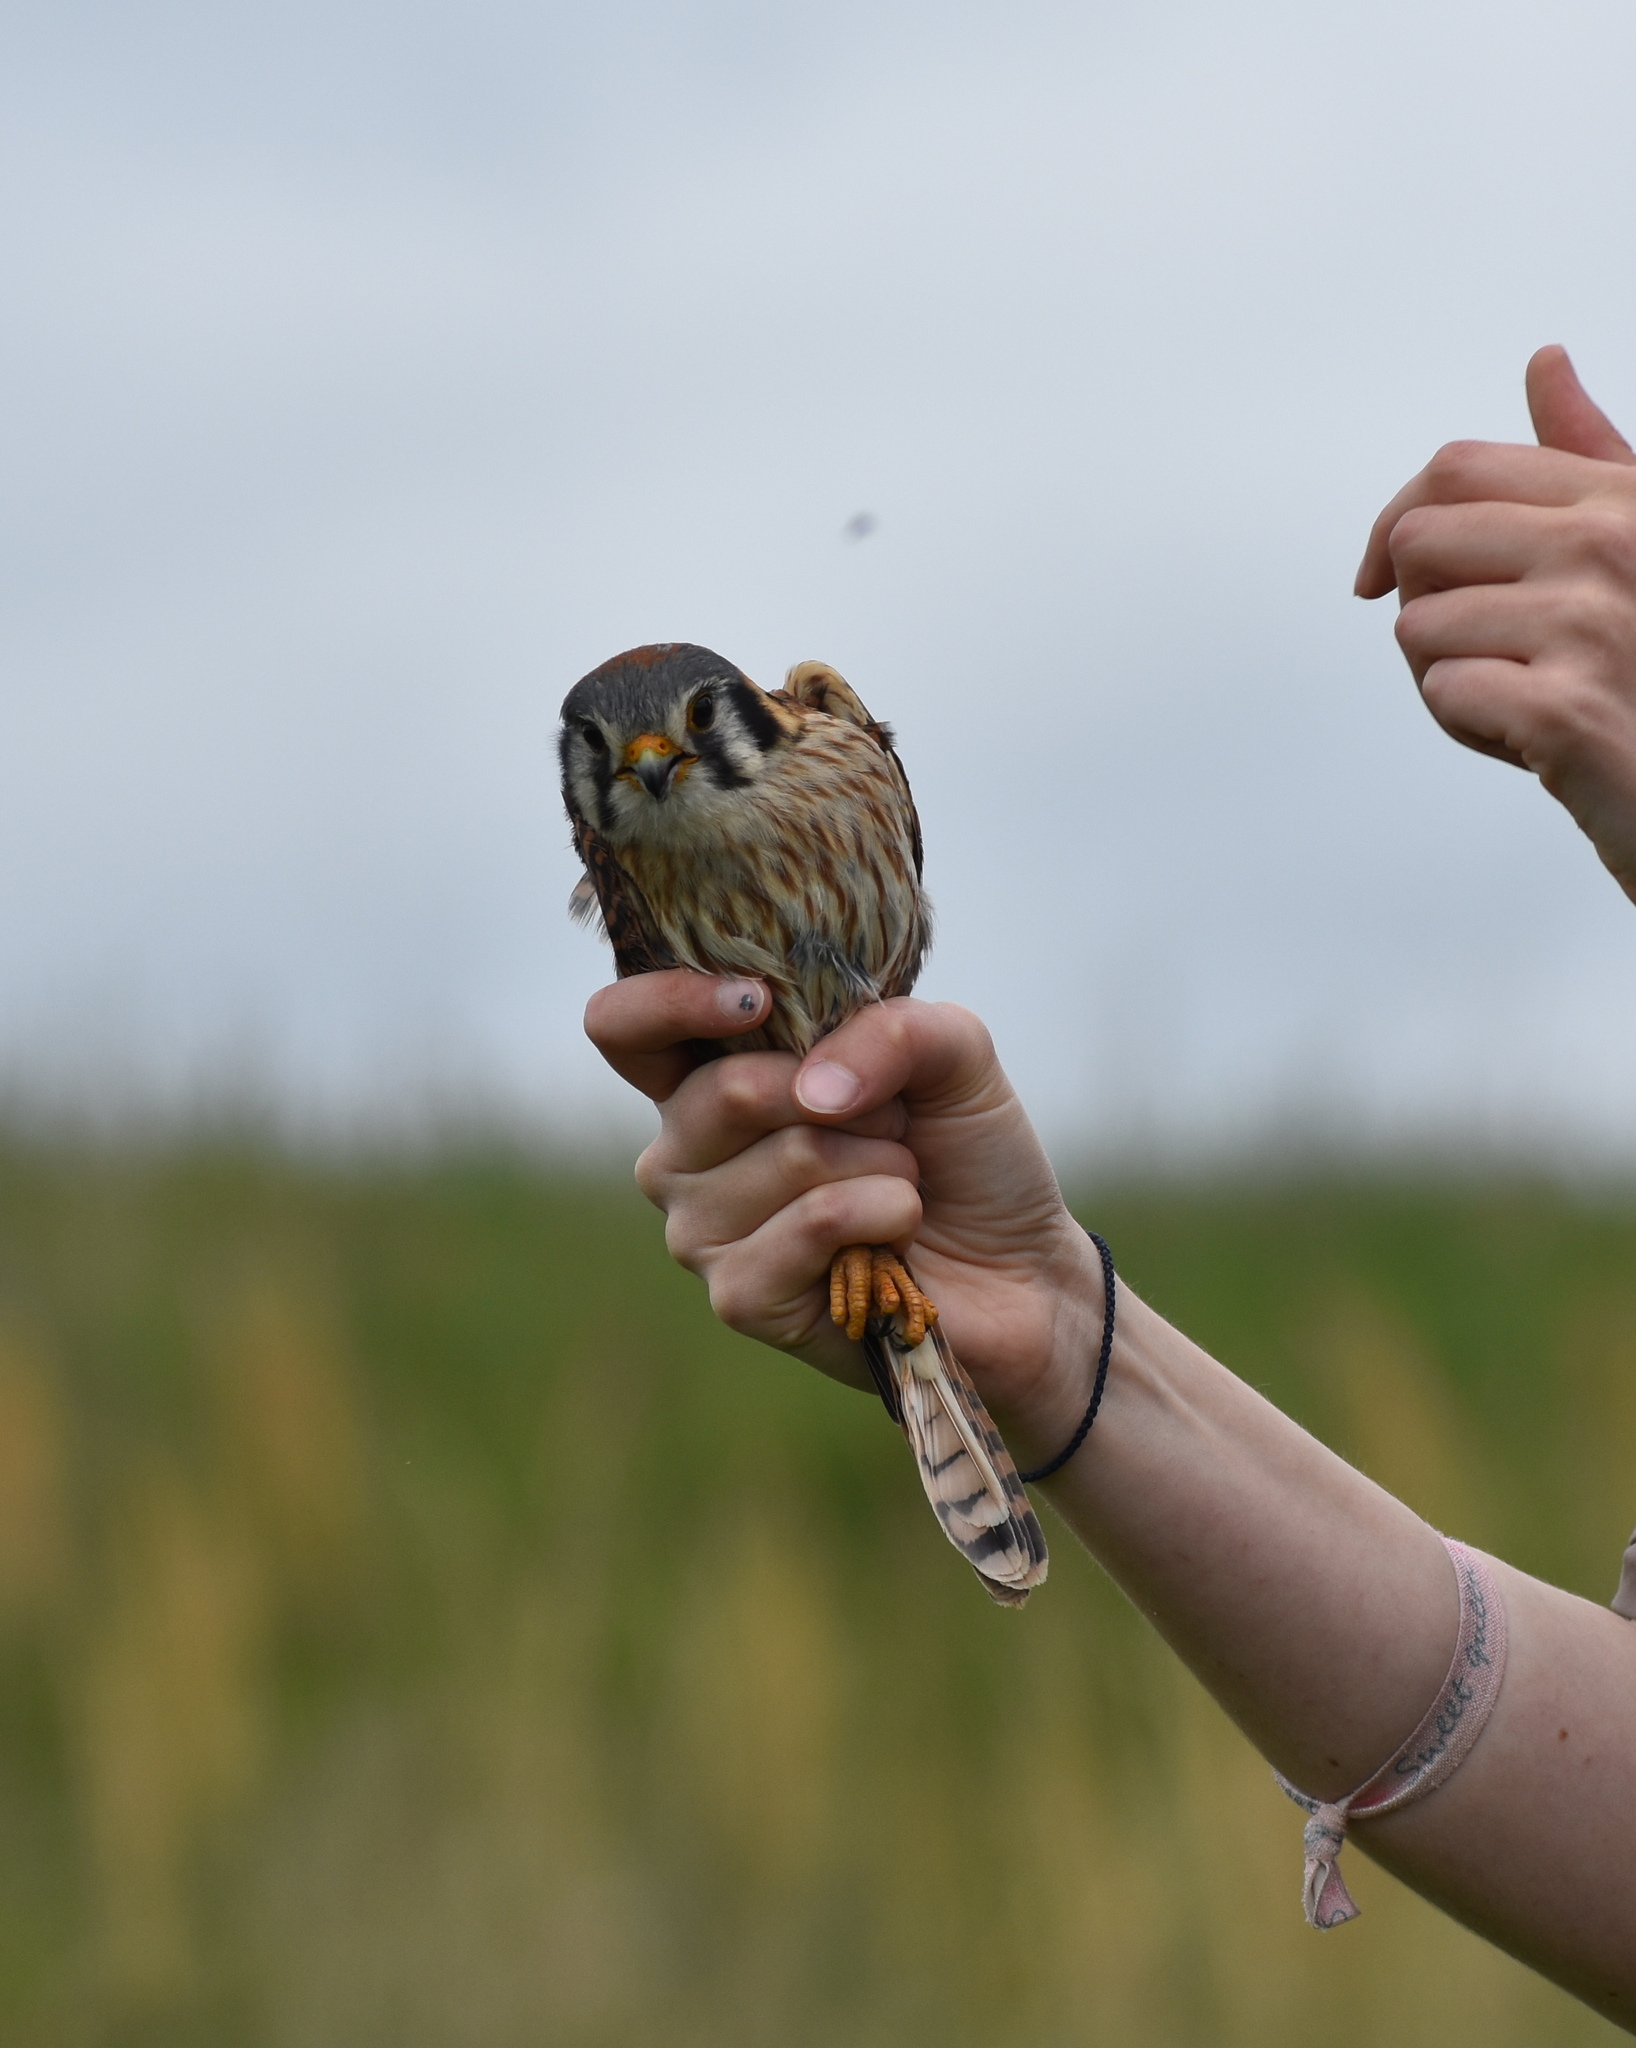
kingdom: Animalia
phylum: Chordata
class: Aves
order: Falconiformes
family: Falconidae
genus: Falco
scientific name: Falco sparverius
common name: American kestrel
